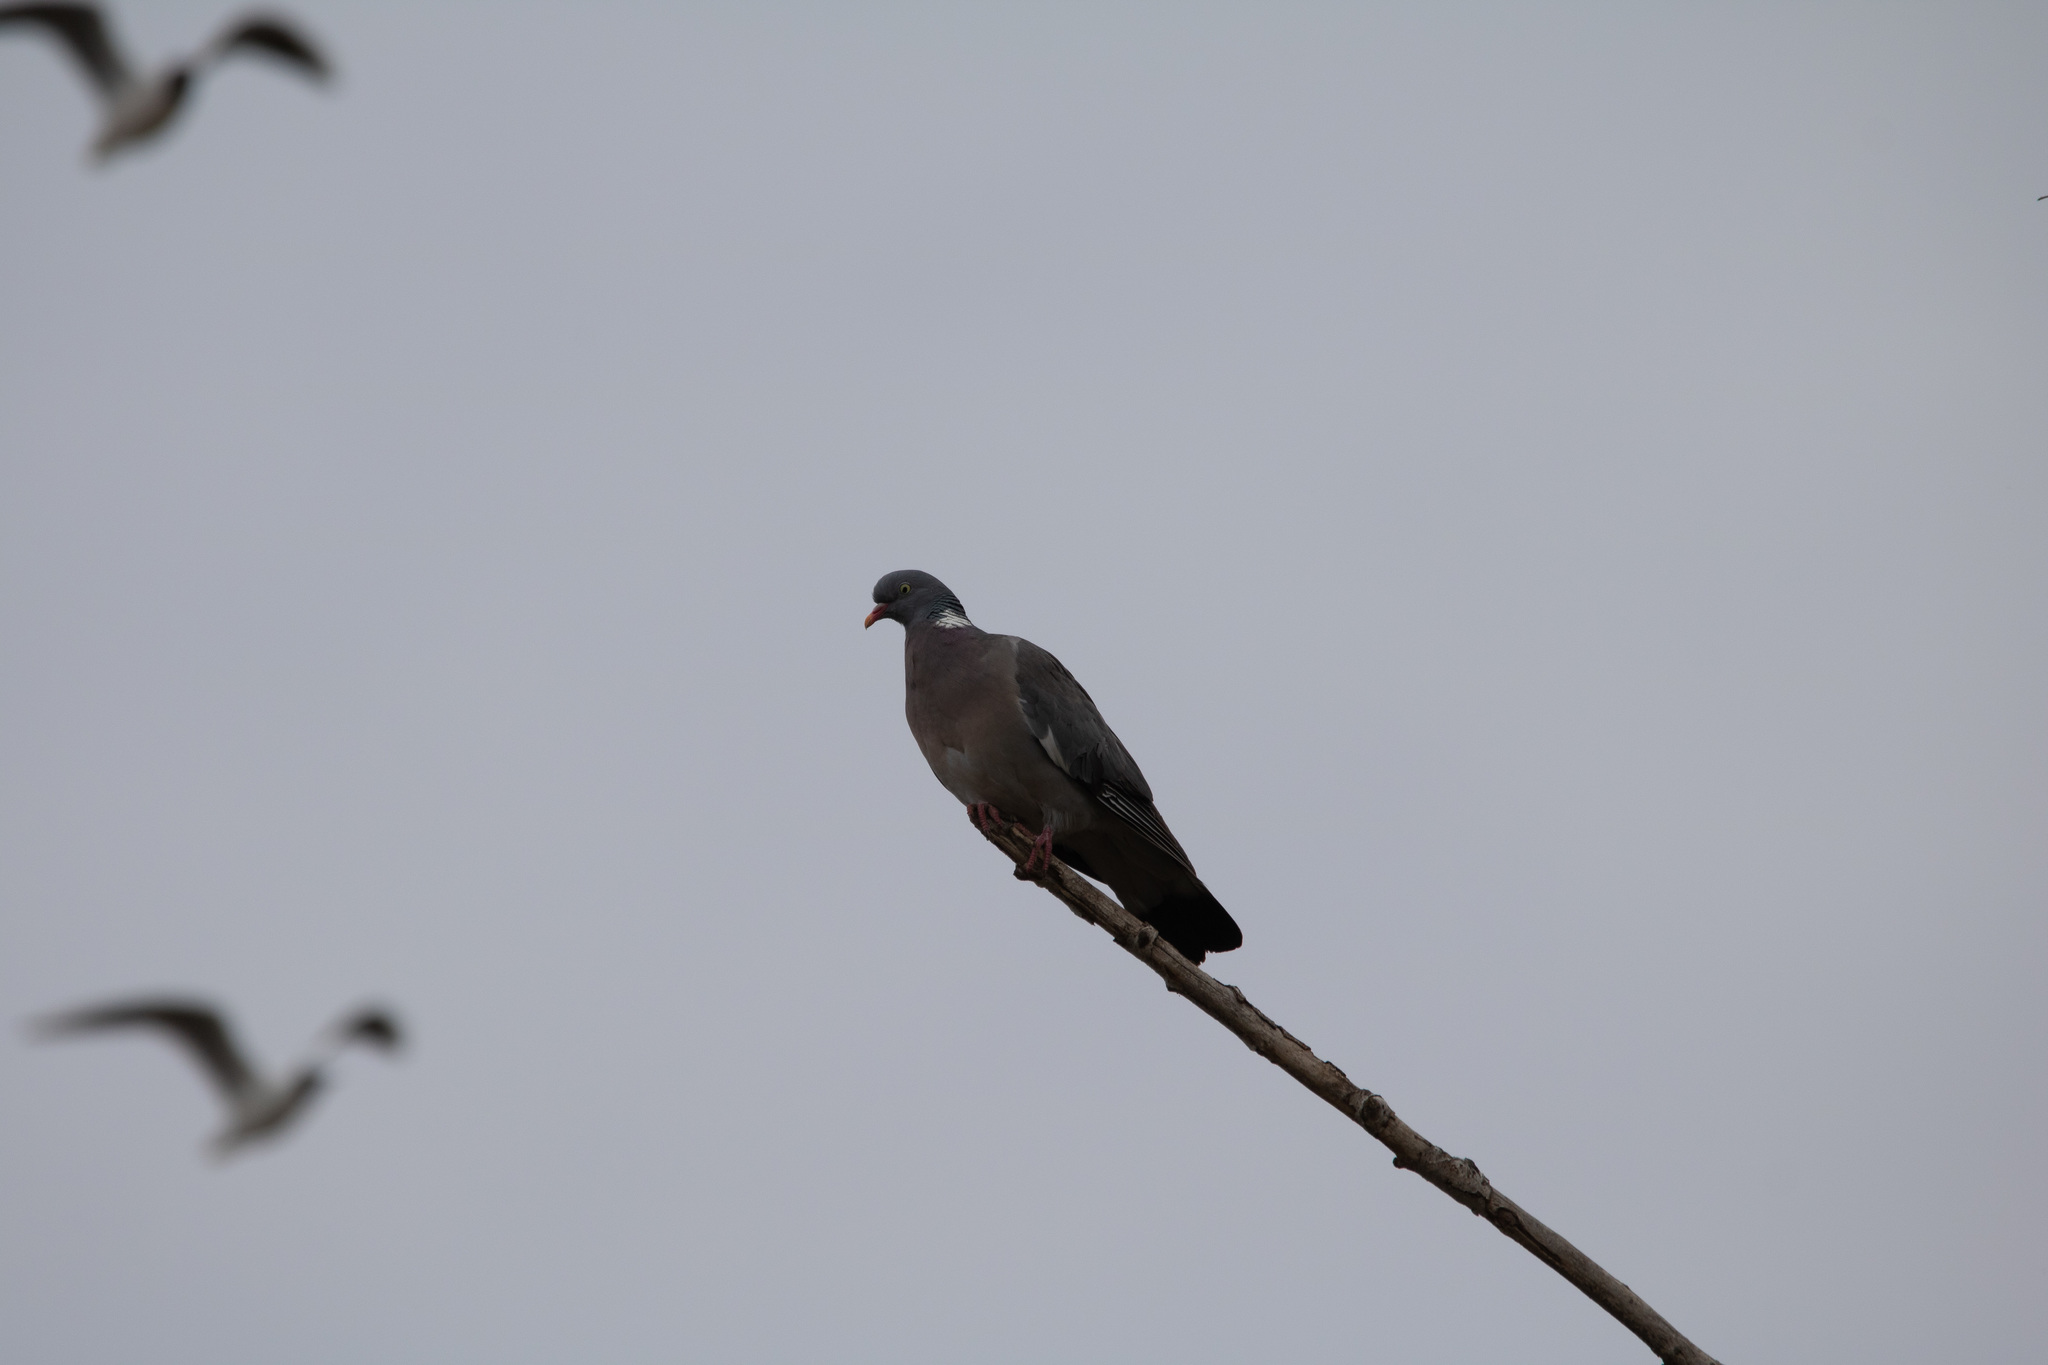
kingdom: Animalia
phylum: Chordata
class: Aves
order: Columbiformes
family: Columbidae
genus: Columba
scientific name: Columba palumbus
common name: Common wood pigeon
